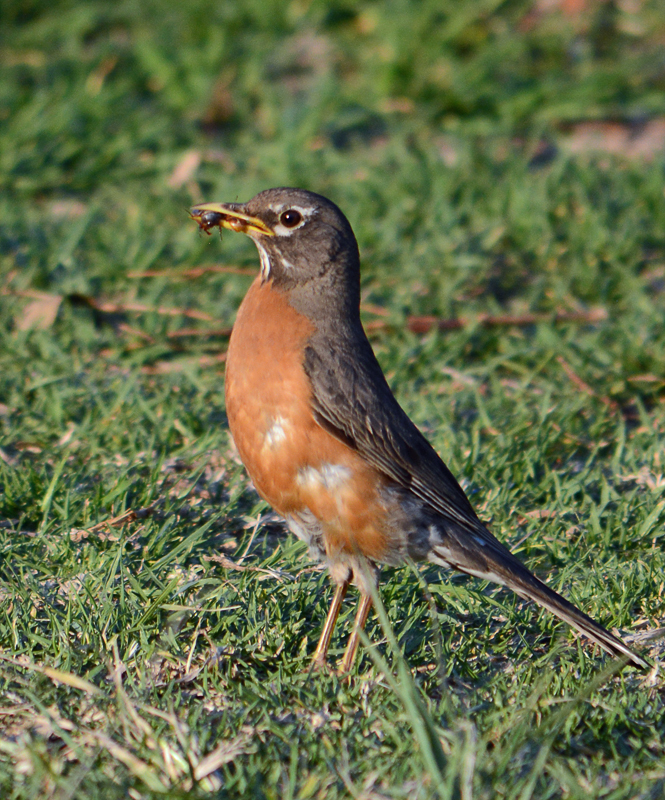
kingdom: Animalia
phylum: Chordata
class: Aves
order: Passeriformes
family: Turdidae
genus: Turdus
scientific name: Turdus migratorius
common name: American robin
